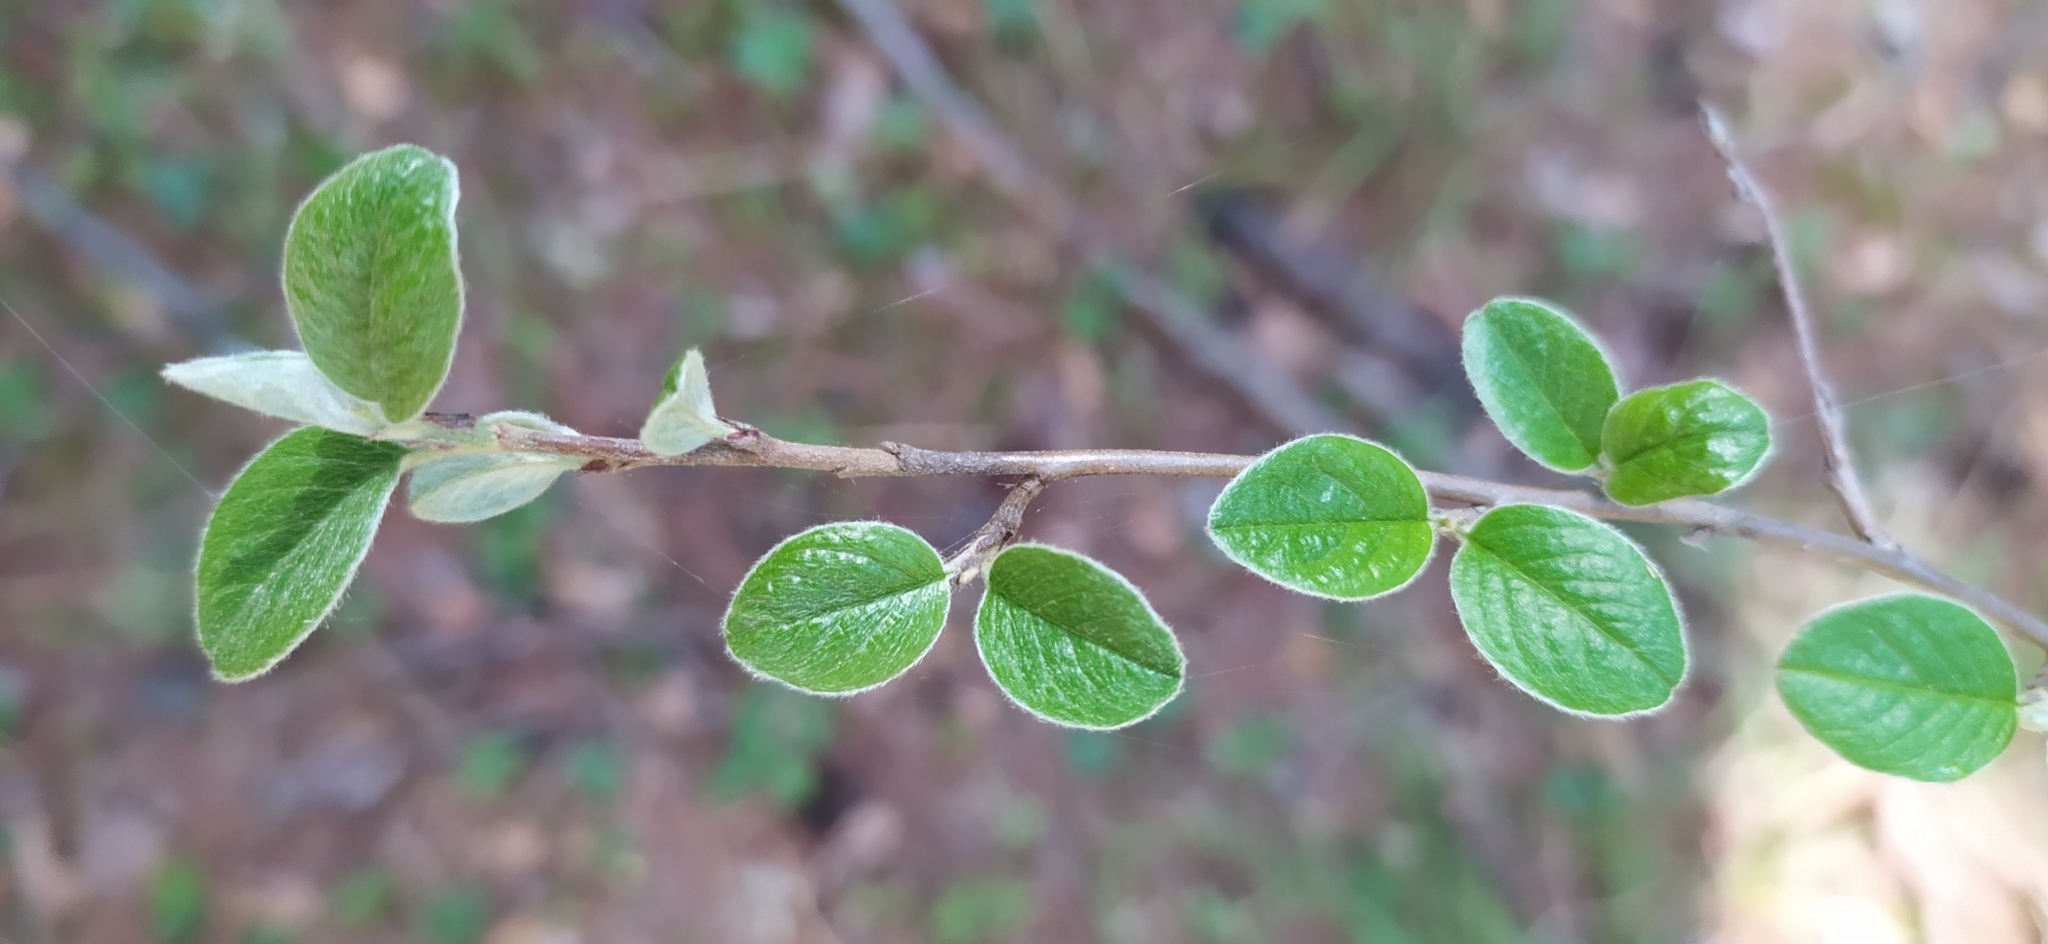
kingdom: Plantae
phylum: Tracheophyta
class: Magnoliopsida
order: Rosales
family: Rosaceae
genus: Cotoneaster
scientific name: Cotoneaster melanocarpus
